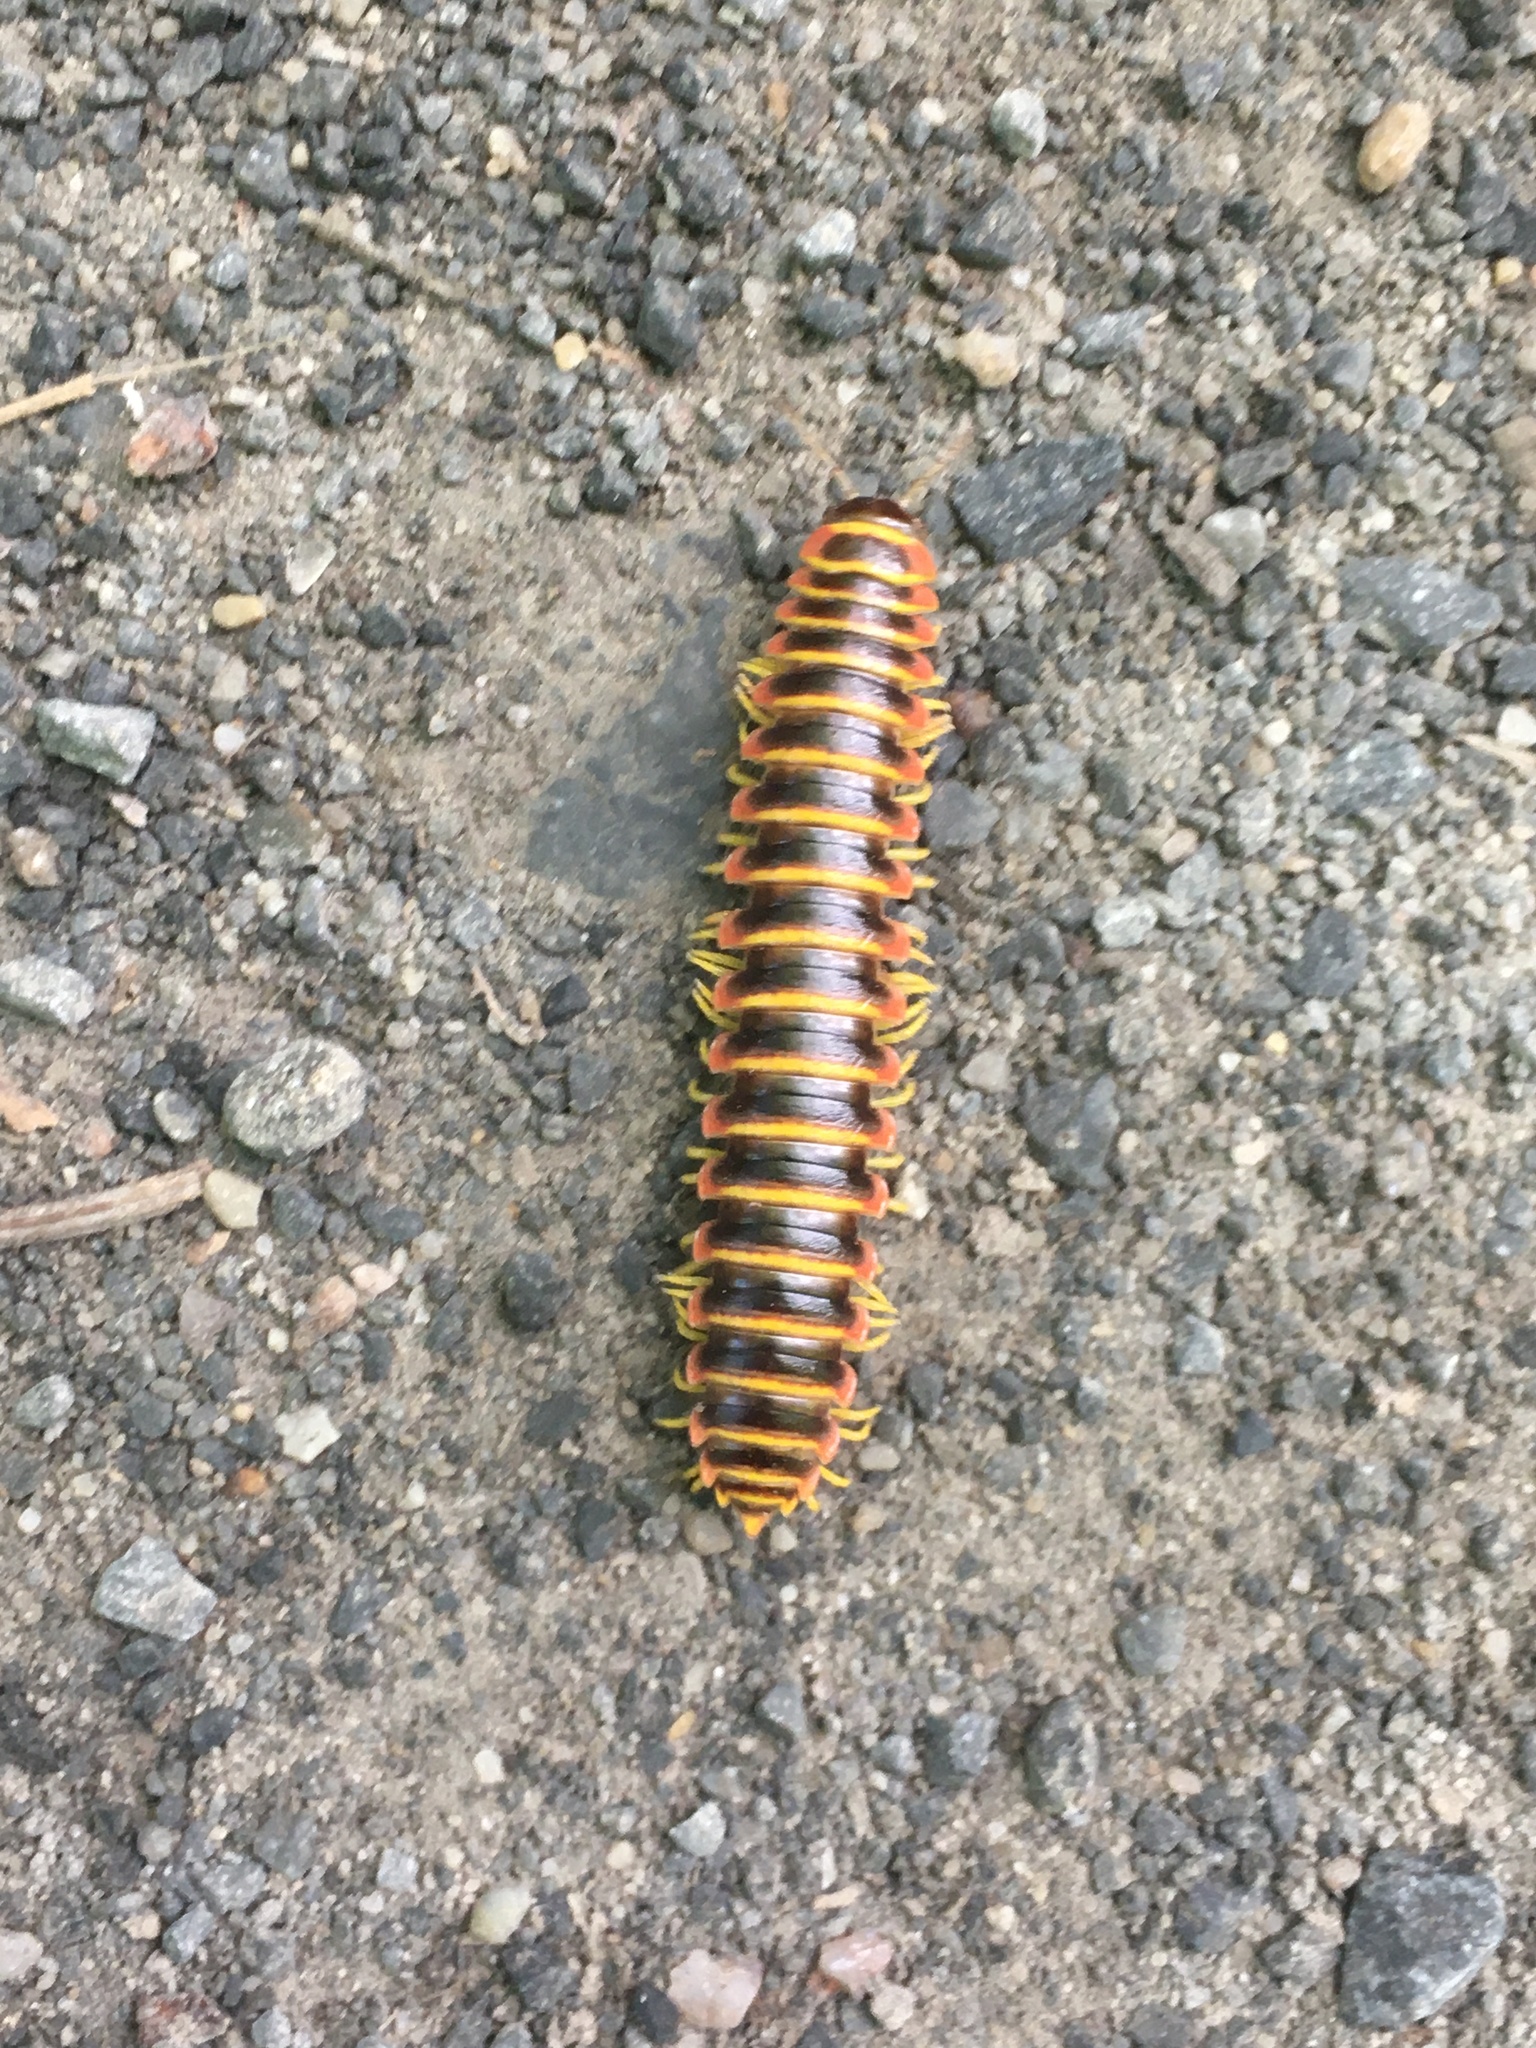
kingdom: Animalia
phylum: Arthropoda
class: Diplopoda
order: Polydesmida
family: Xystodesmidae
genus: Apheloria
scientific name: Apheloria virginiensis
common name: Black-and-gold flat millipede
